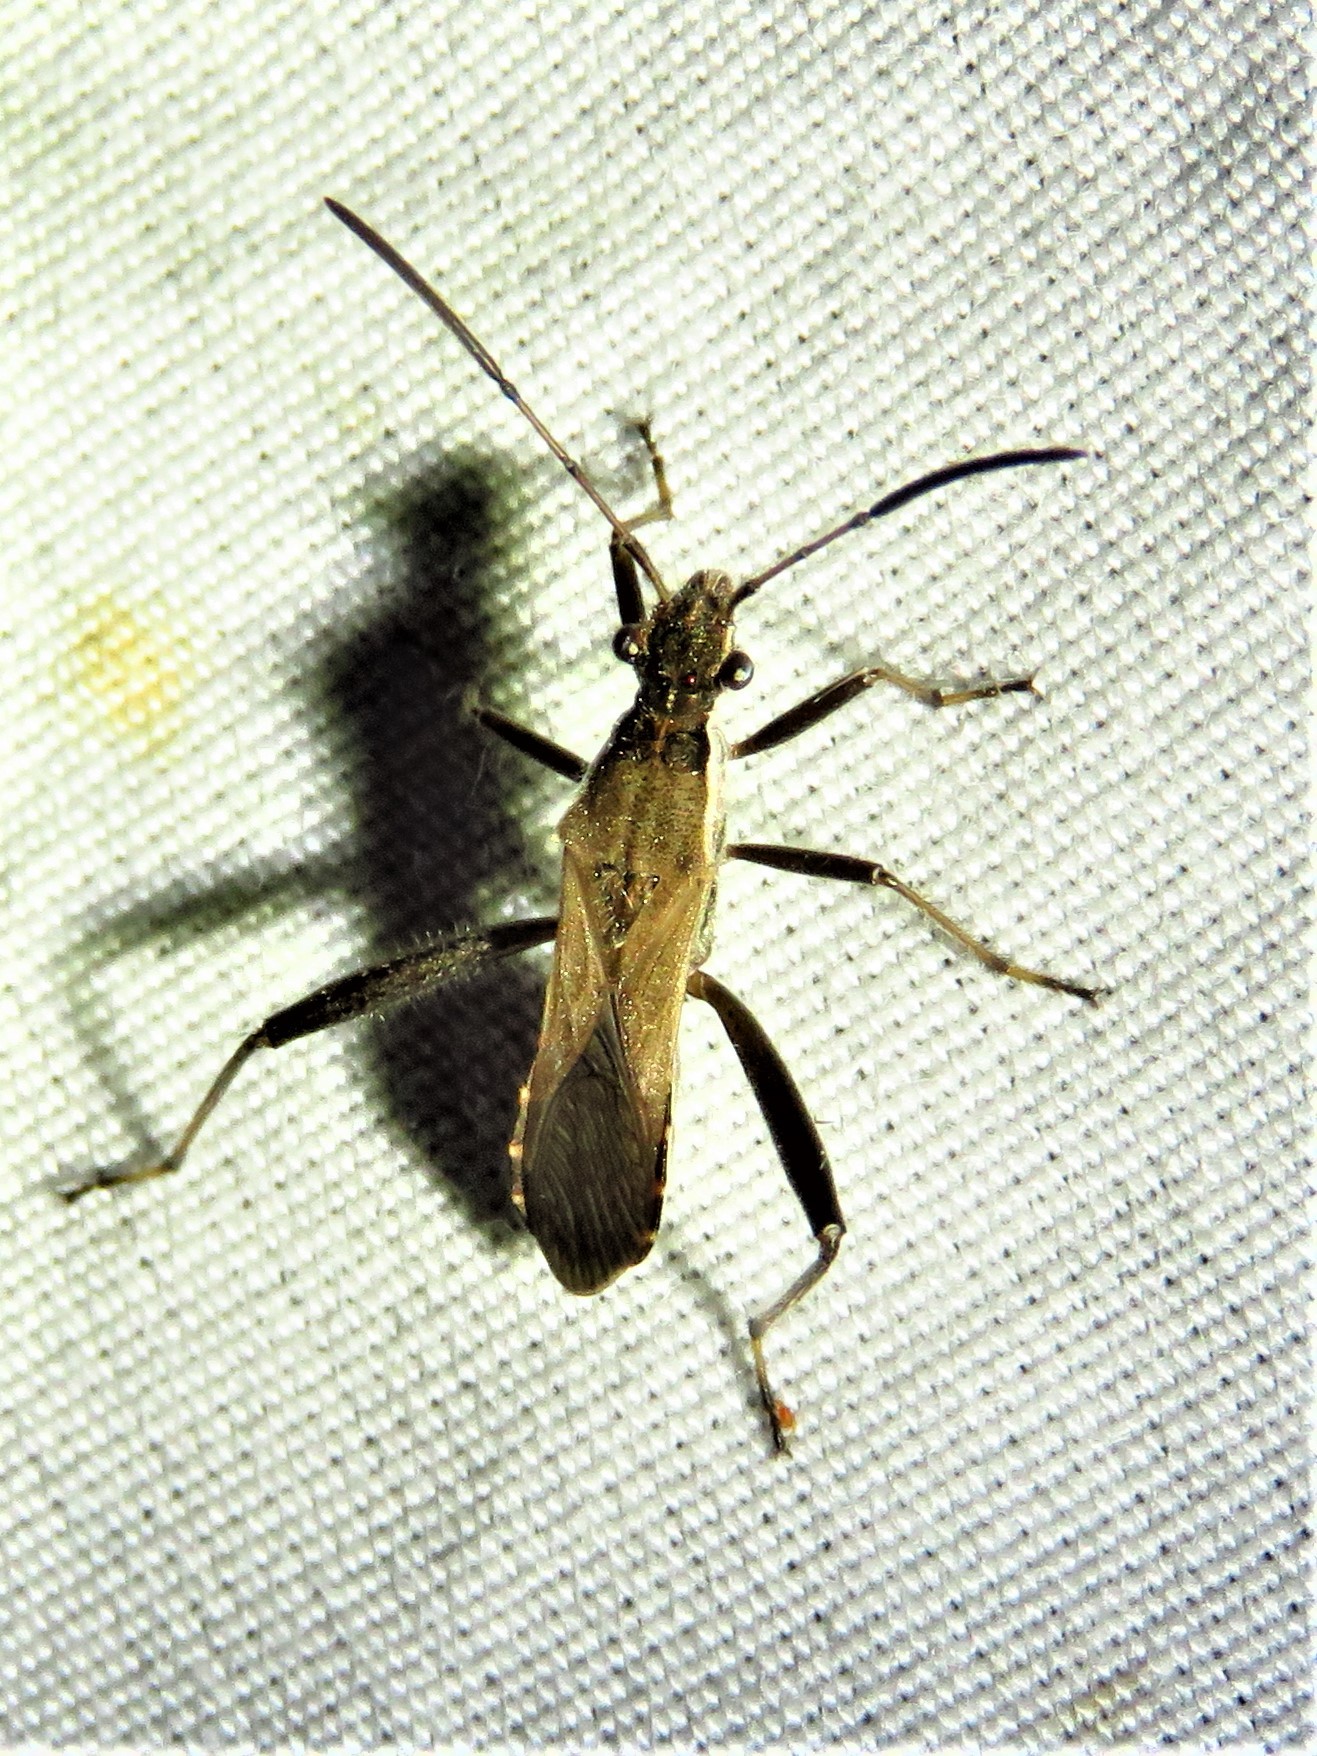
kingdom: Animalia
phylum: Arthropoda
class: Insecta
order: Hemiptera
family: Alydidae
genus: Alydus
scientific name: Alydus pilosulus
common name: Broad-headed bug
